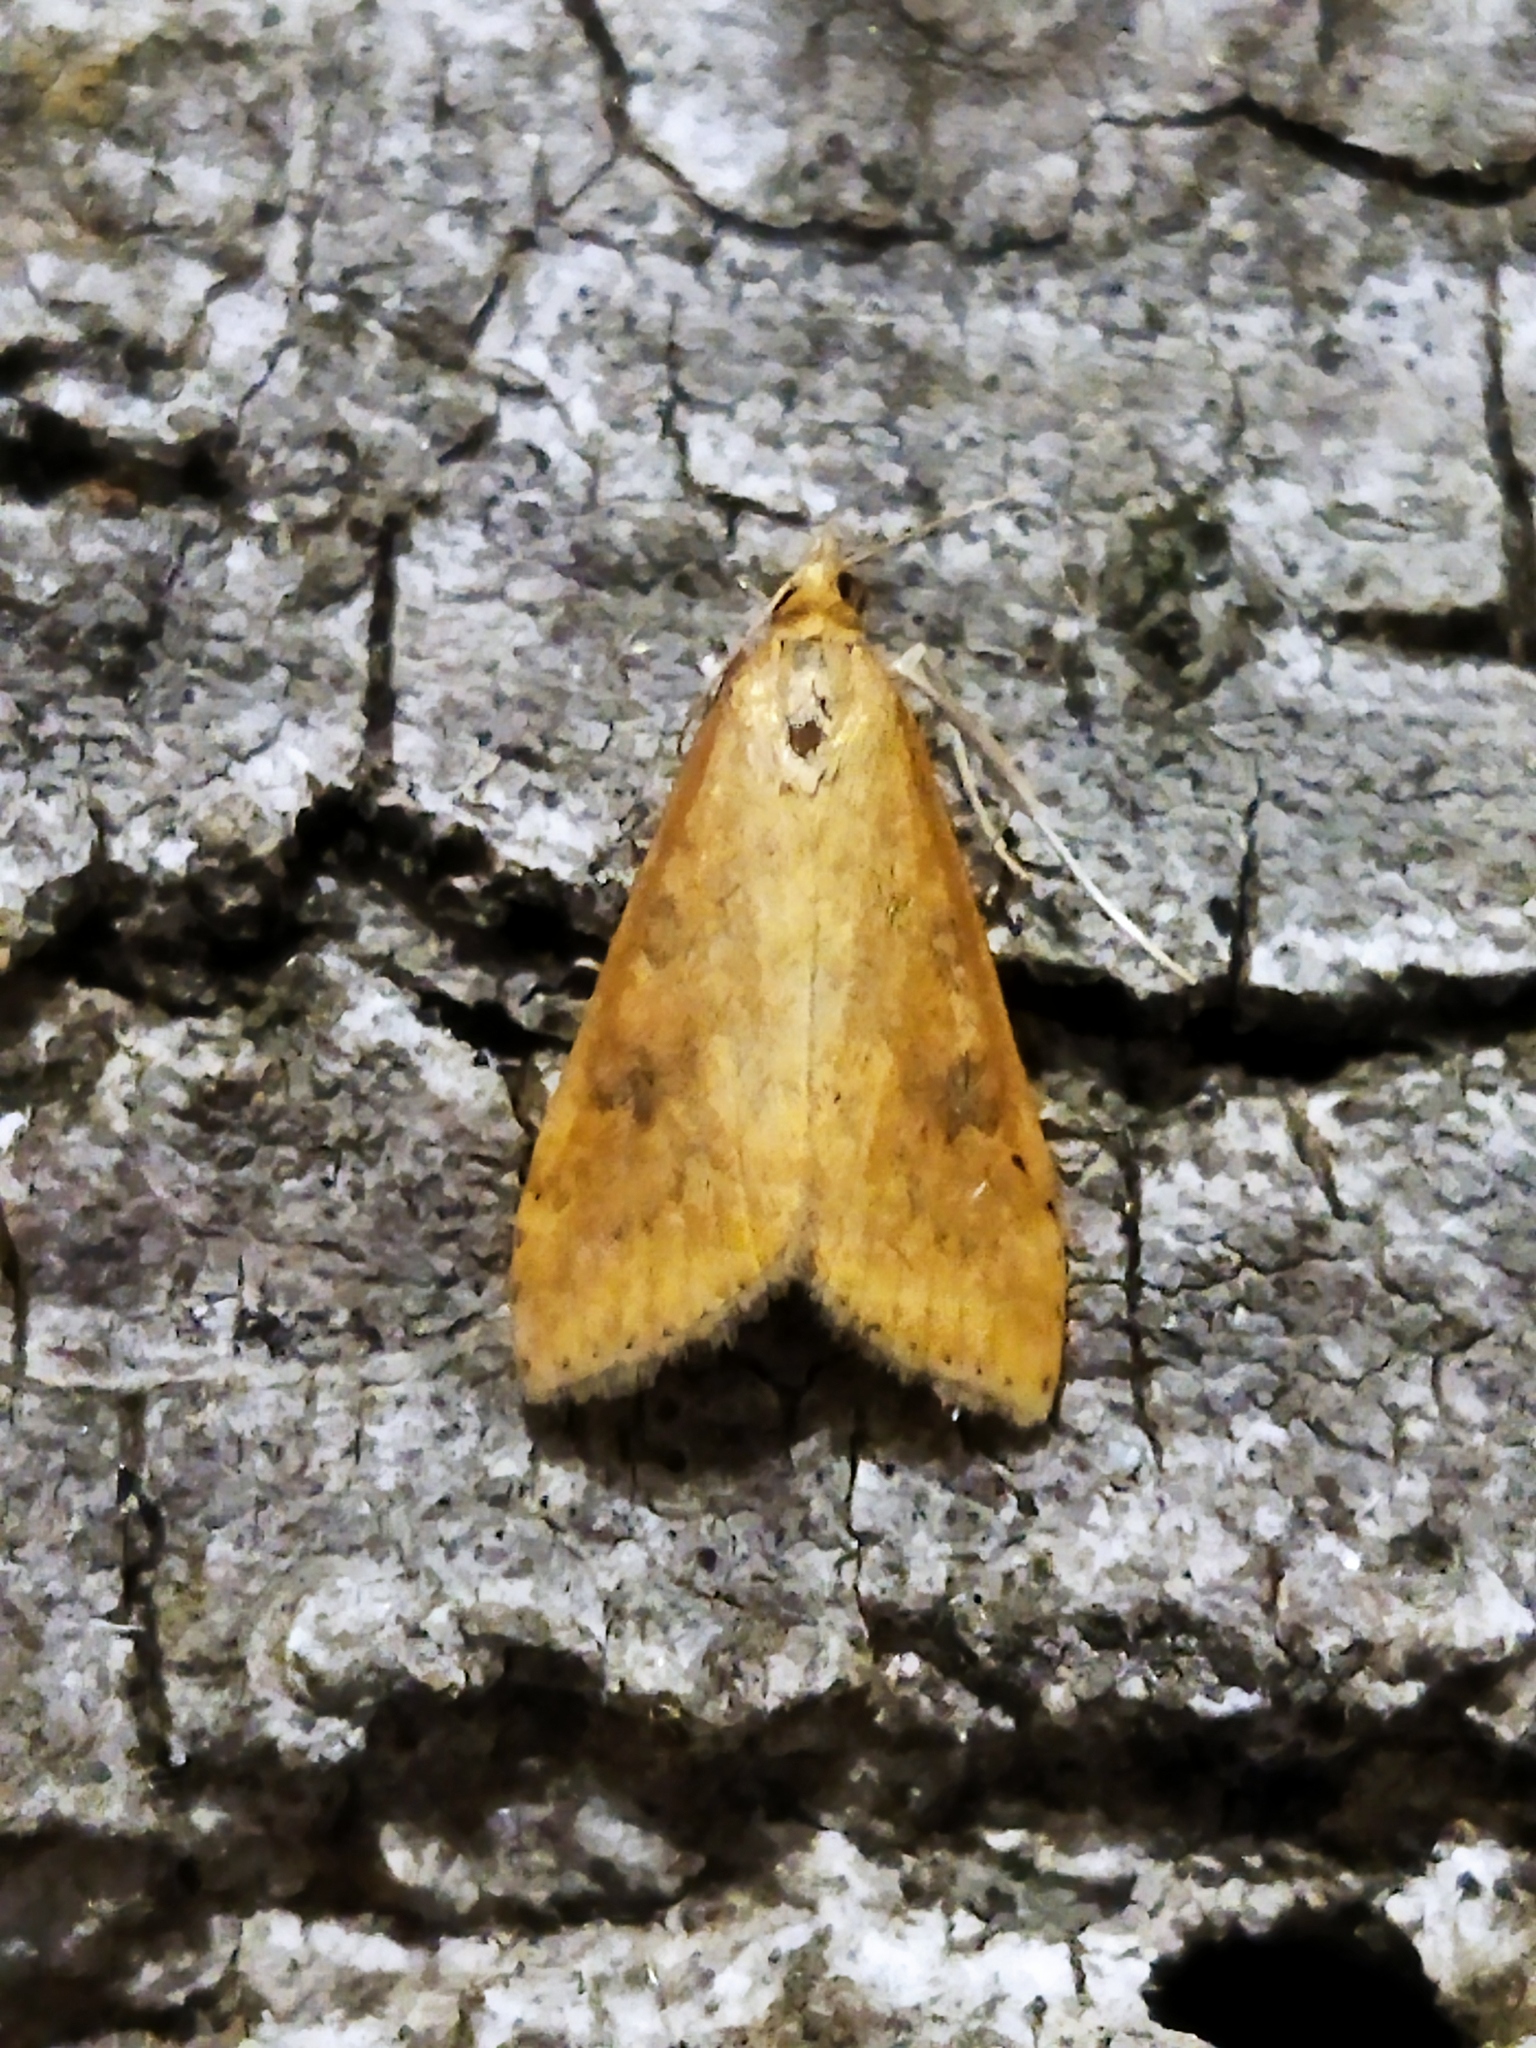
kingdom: Animalia
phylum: Arthropoda
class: Insecta
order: Lepidoptera
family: Crambidae
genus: Udea
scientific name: Udea ferrugalis
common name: Rusty dot
